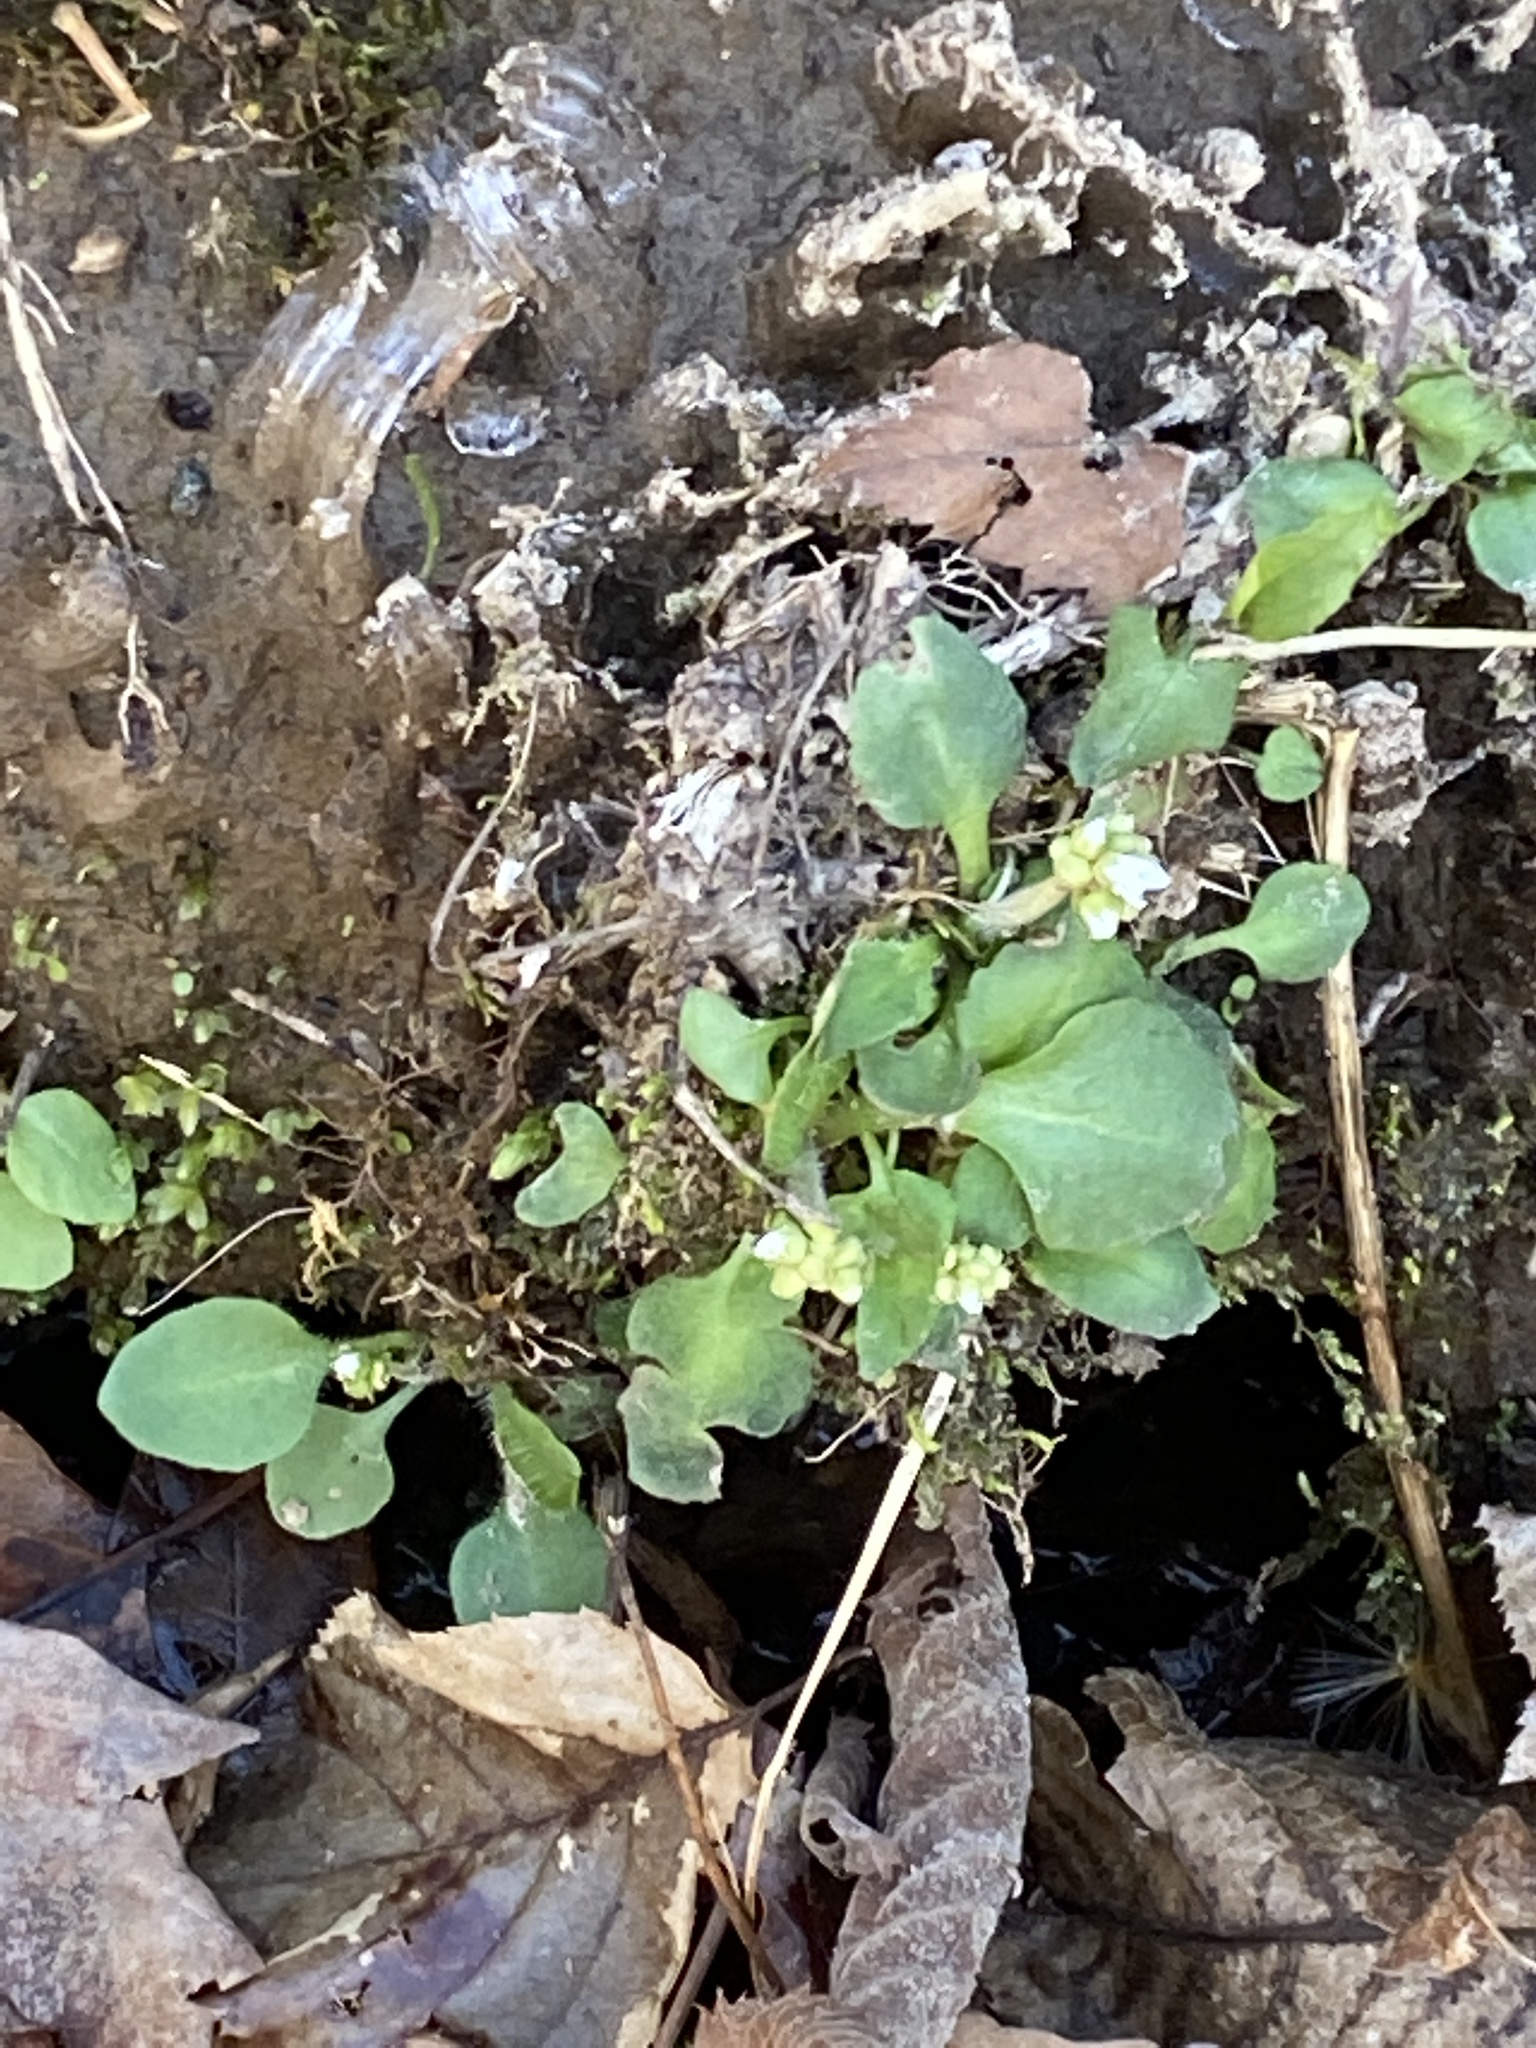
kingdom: Plantae
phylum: Tracheophyta
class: Magnoliopsida
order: Saxifragales
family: Saxifragaceae
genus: Micranthes
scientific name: Micranthes virginiensis
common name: Early saxifrage
